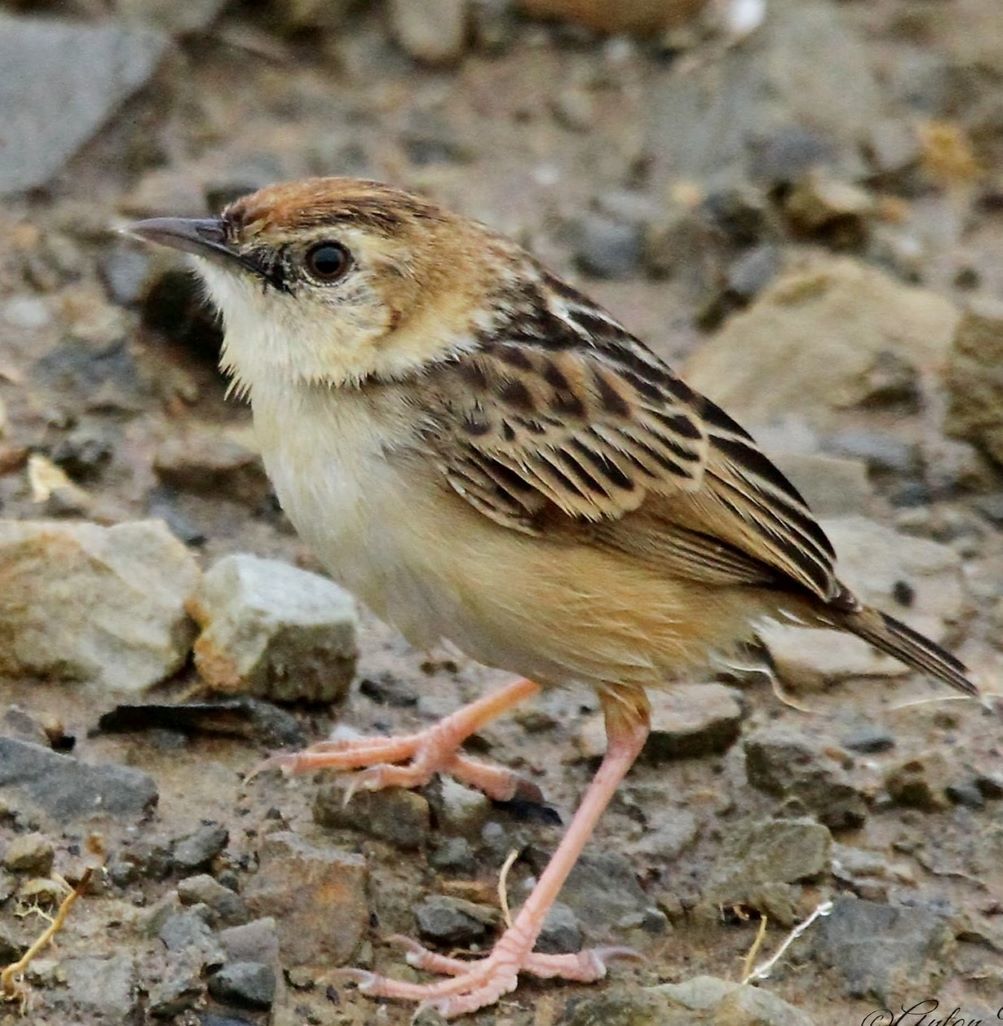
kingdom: Animalia
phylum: Chordata
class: Aves
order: Passeriformes
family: Cisticolidae
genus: Cisticola
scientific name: Cisticola ayresii
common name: Wing-snapping cisticola
